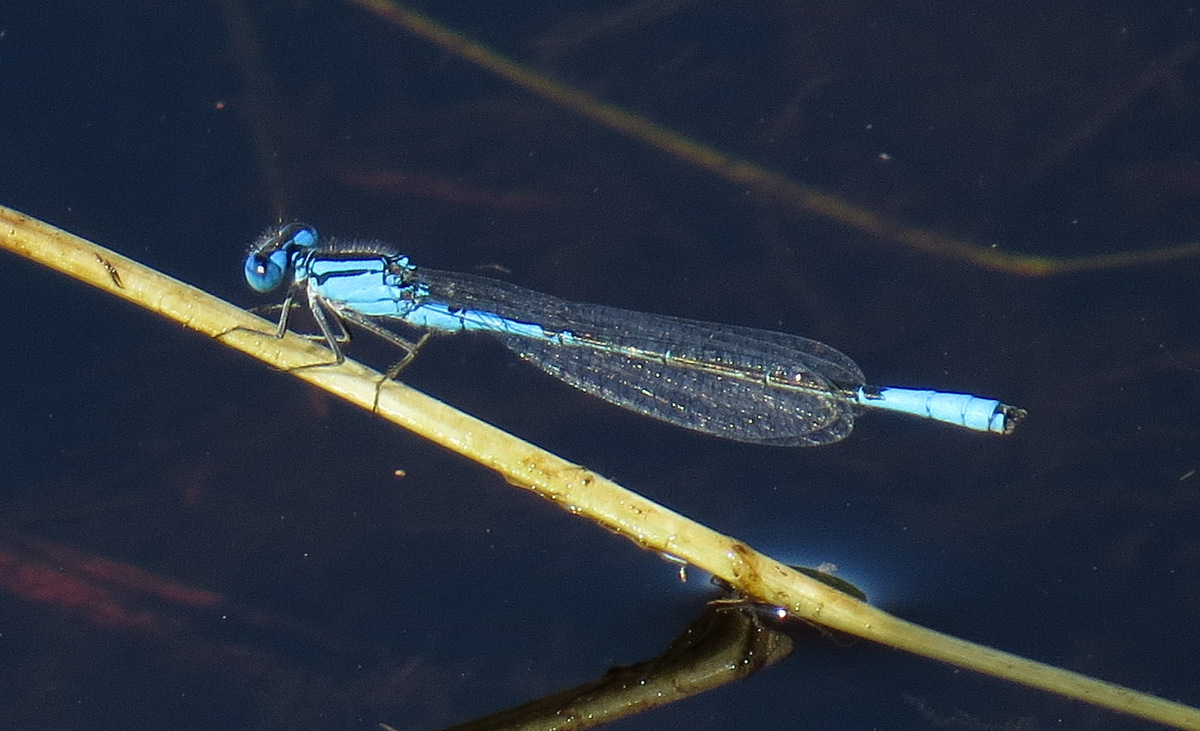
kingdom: Animalia
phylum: Arthropoda
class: Insecta
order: Odonata
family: Coenagrionidae
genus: Enallagma
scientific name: Enallagma aspersum
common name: Azure bluet
